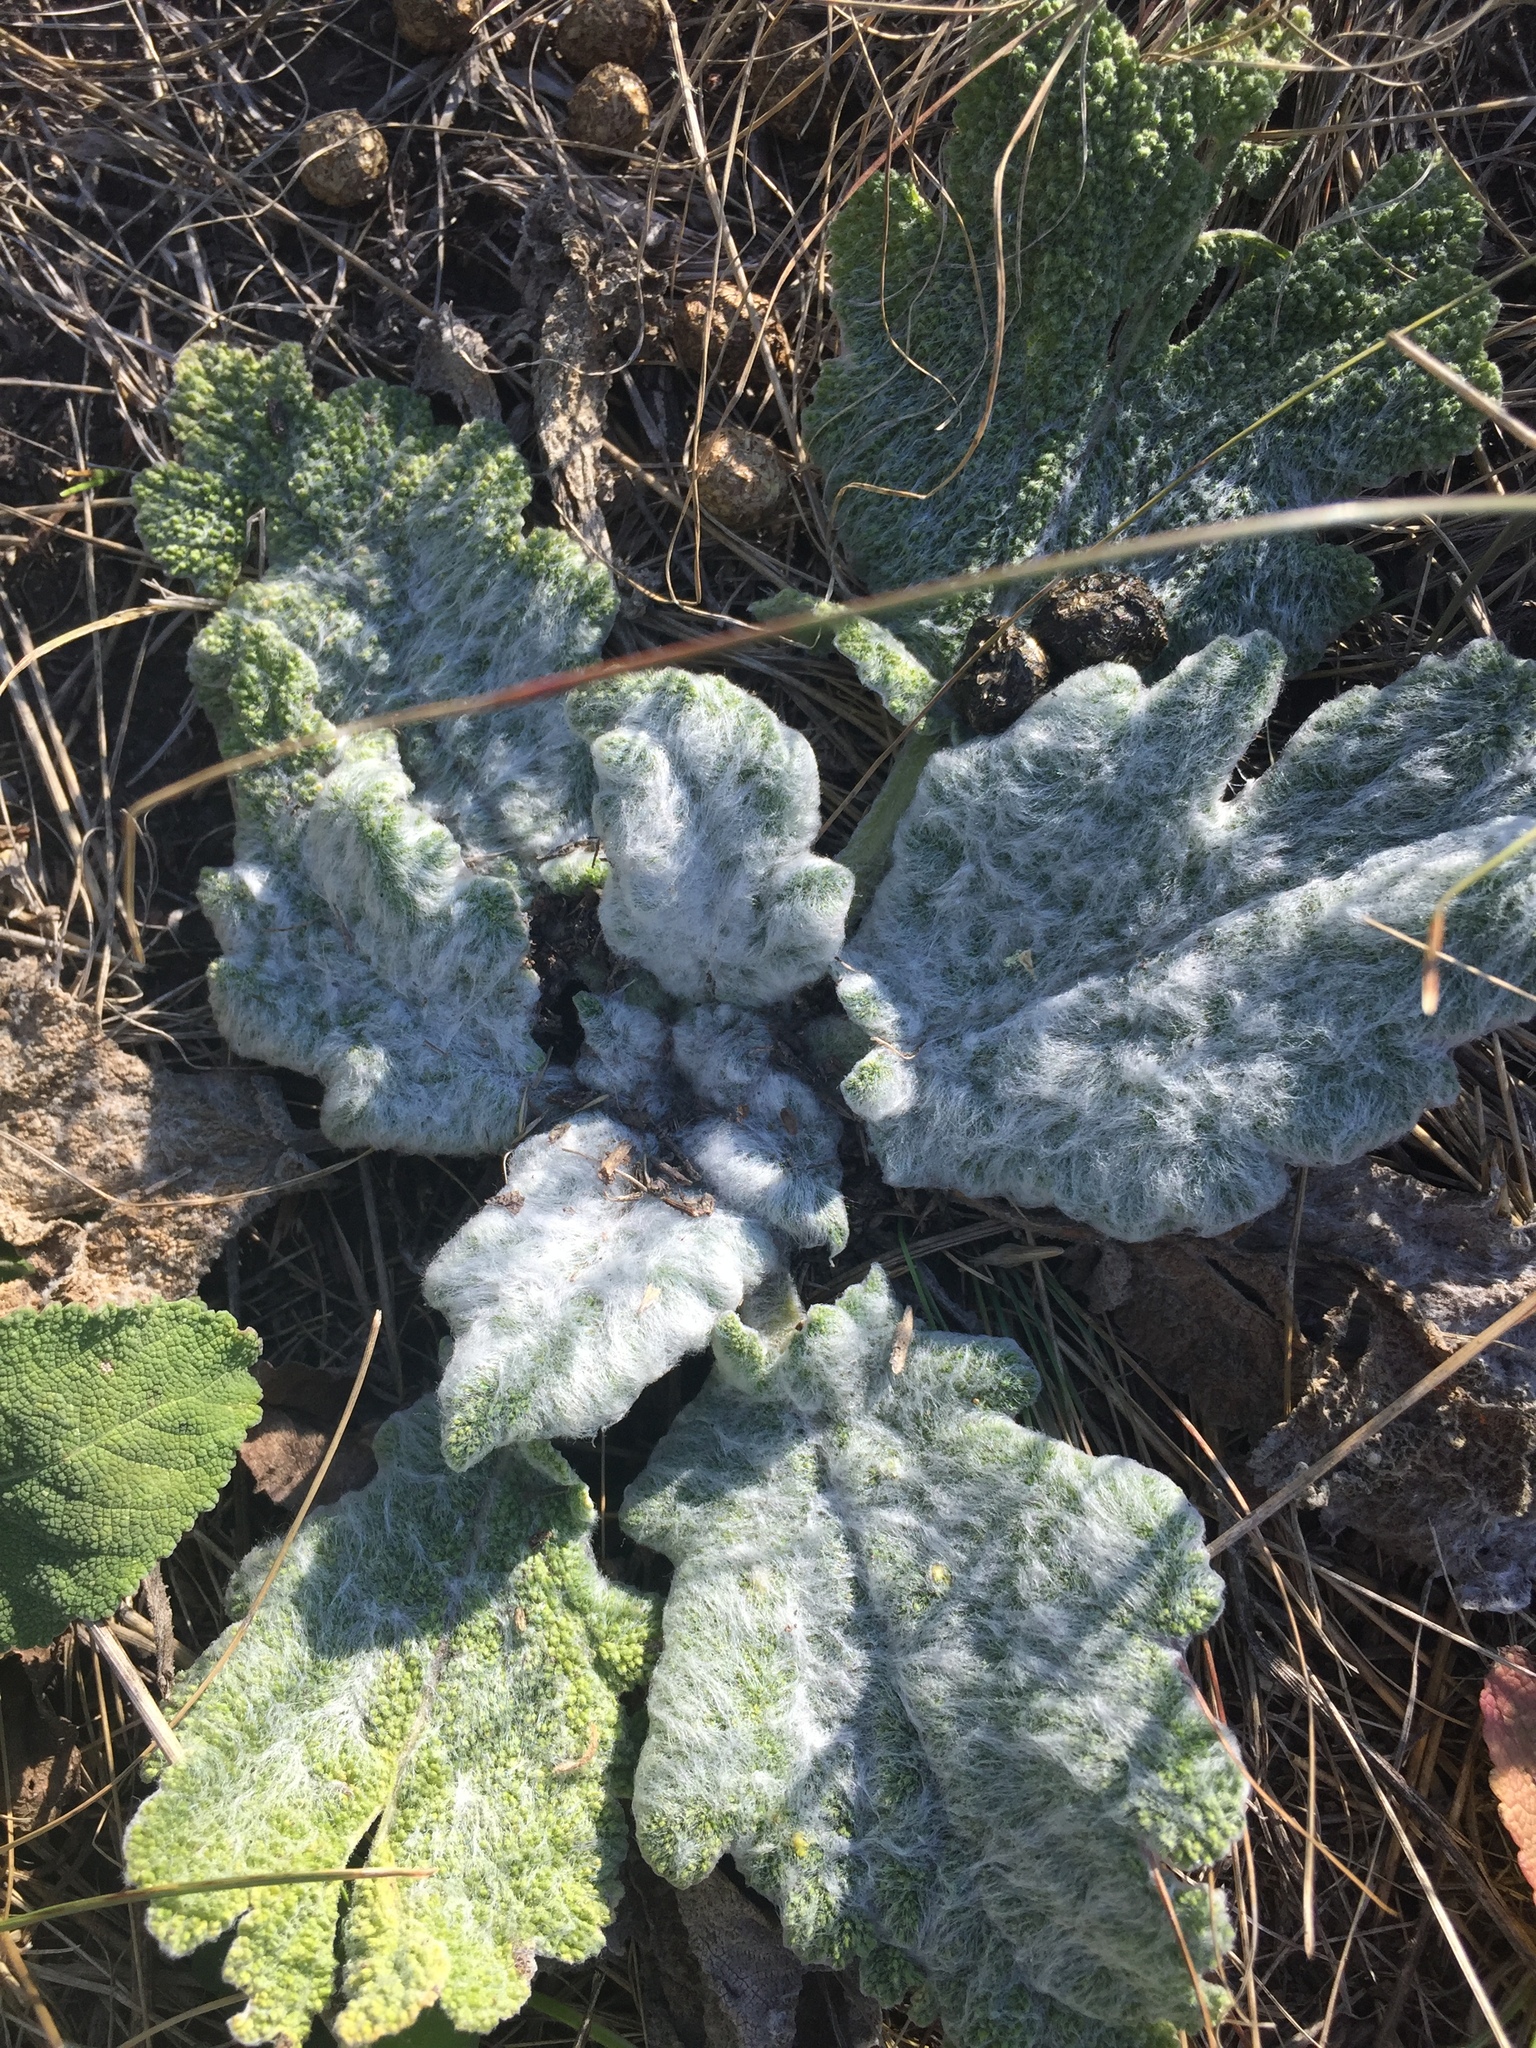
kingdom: Plantae
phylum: Tracheophyta
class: Magnoliopsida
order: Lamiales
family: Lamiaceae
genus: Salvia
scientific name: Salvia aethiopis
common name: Mediterranean sage
